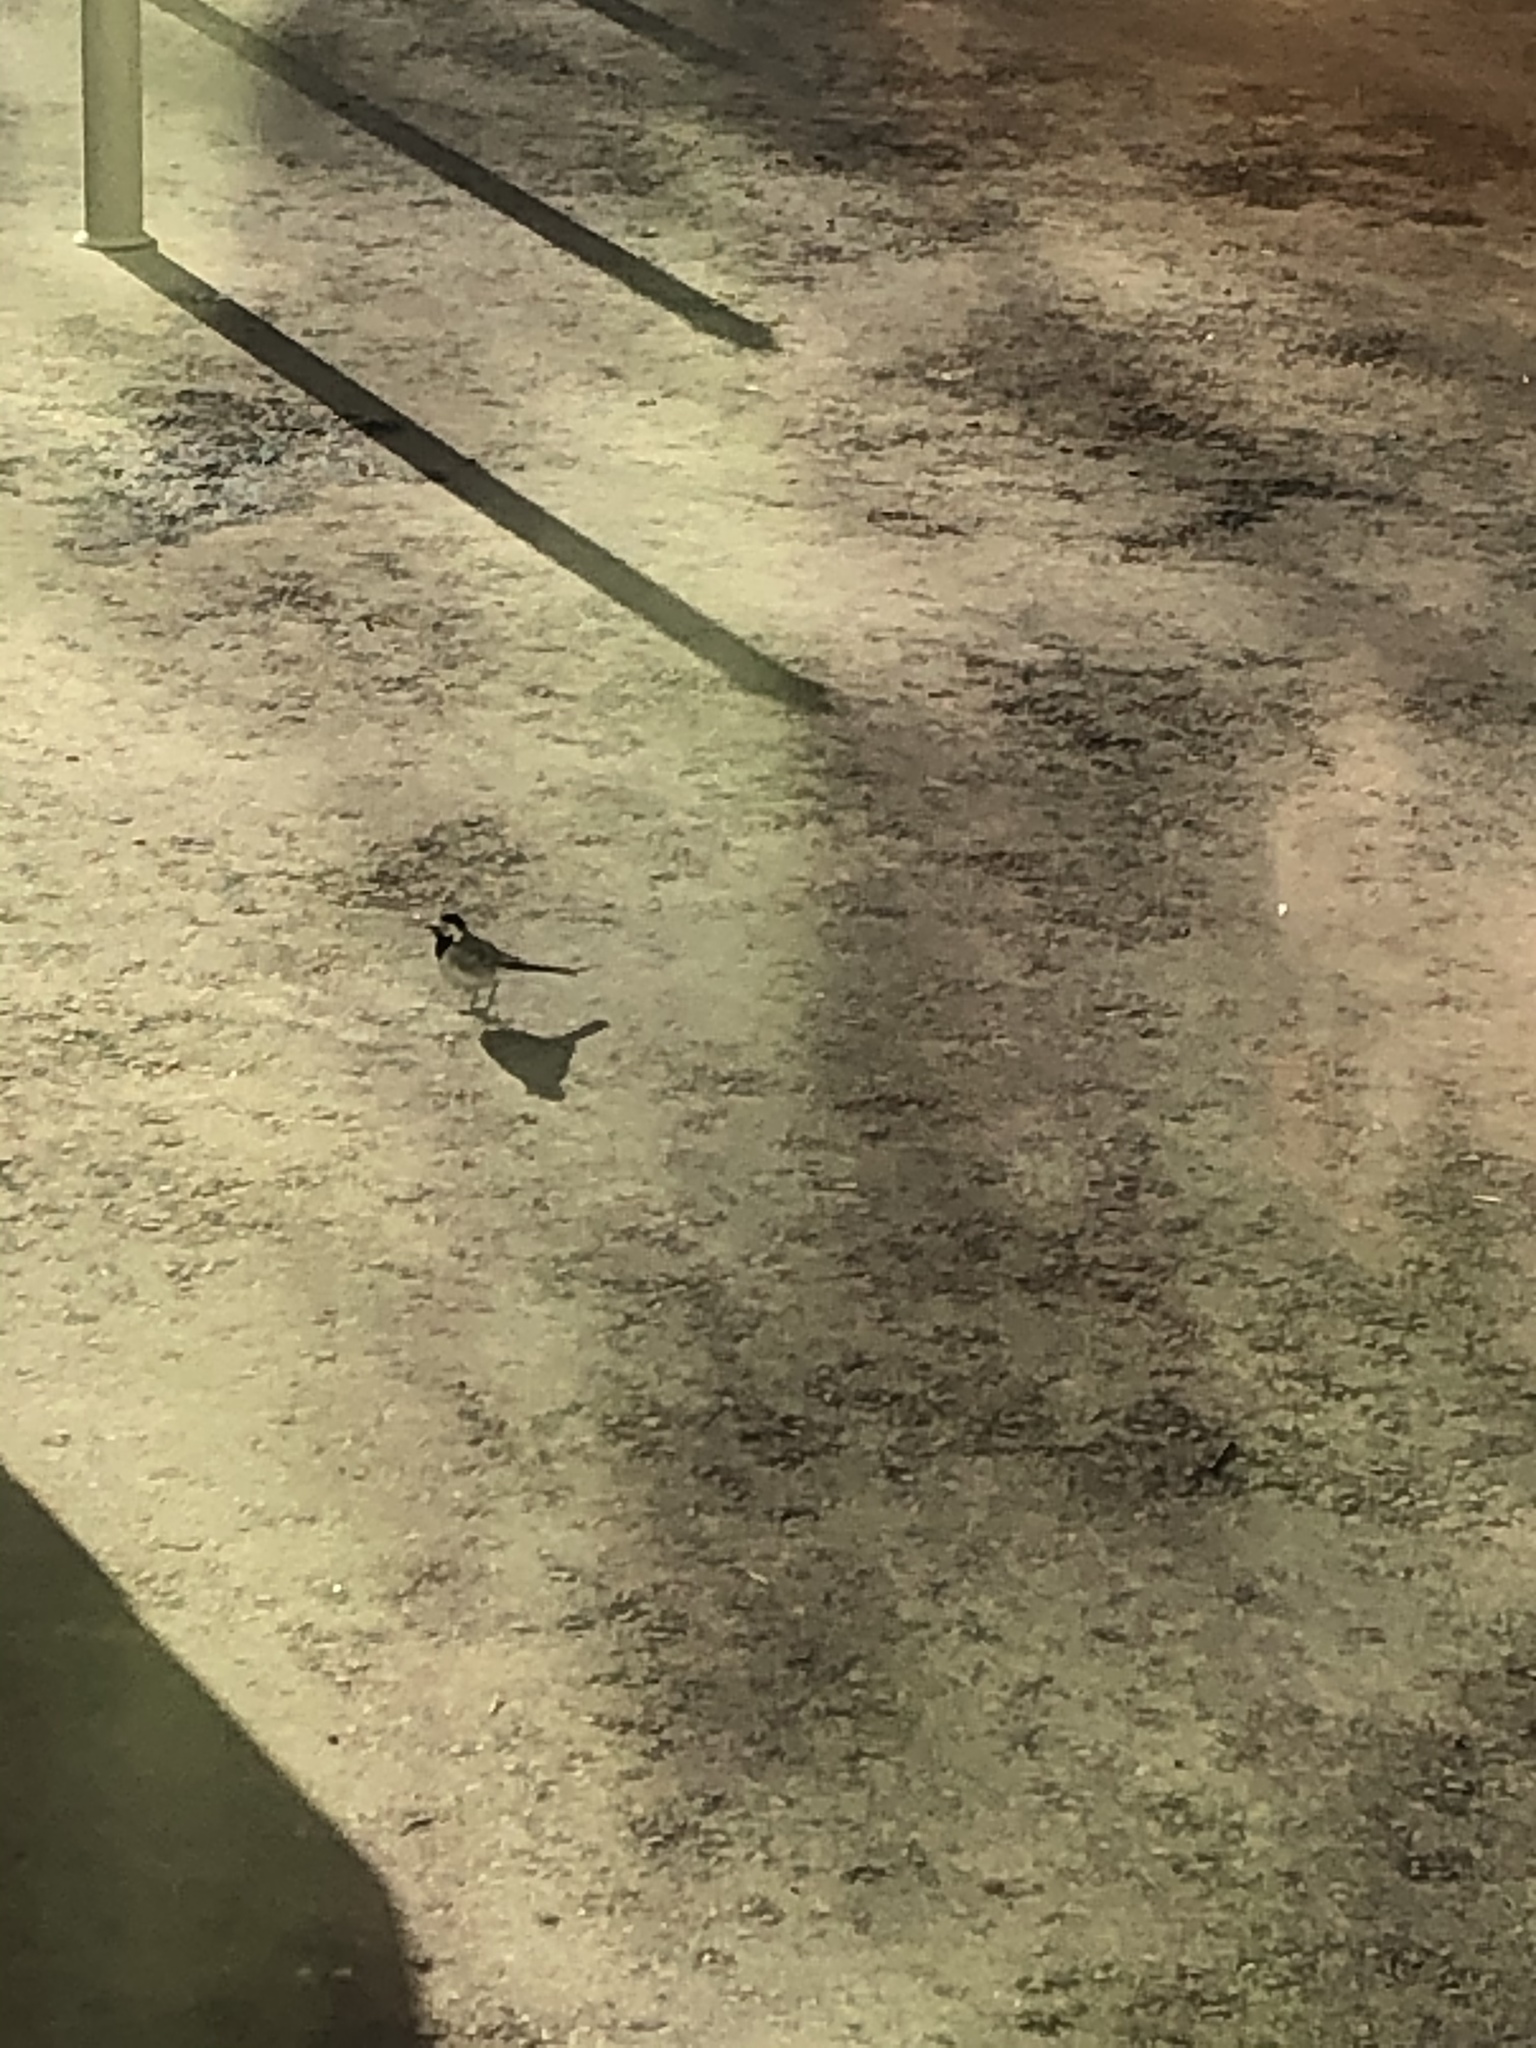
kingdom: Animalia
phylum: Chordata
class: Aves
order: Passeriformes
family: Motacillidae
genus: Motacilla
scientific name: Motacilla alba
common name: White wagtail
